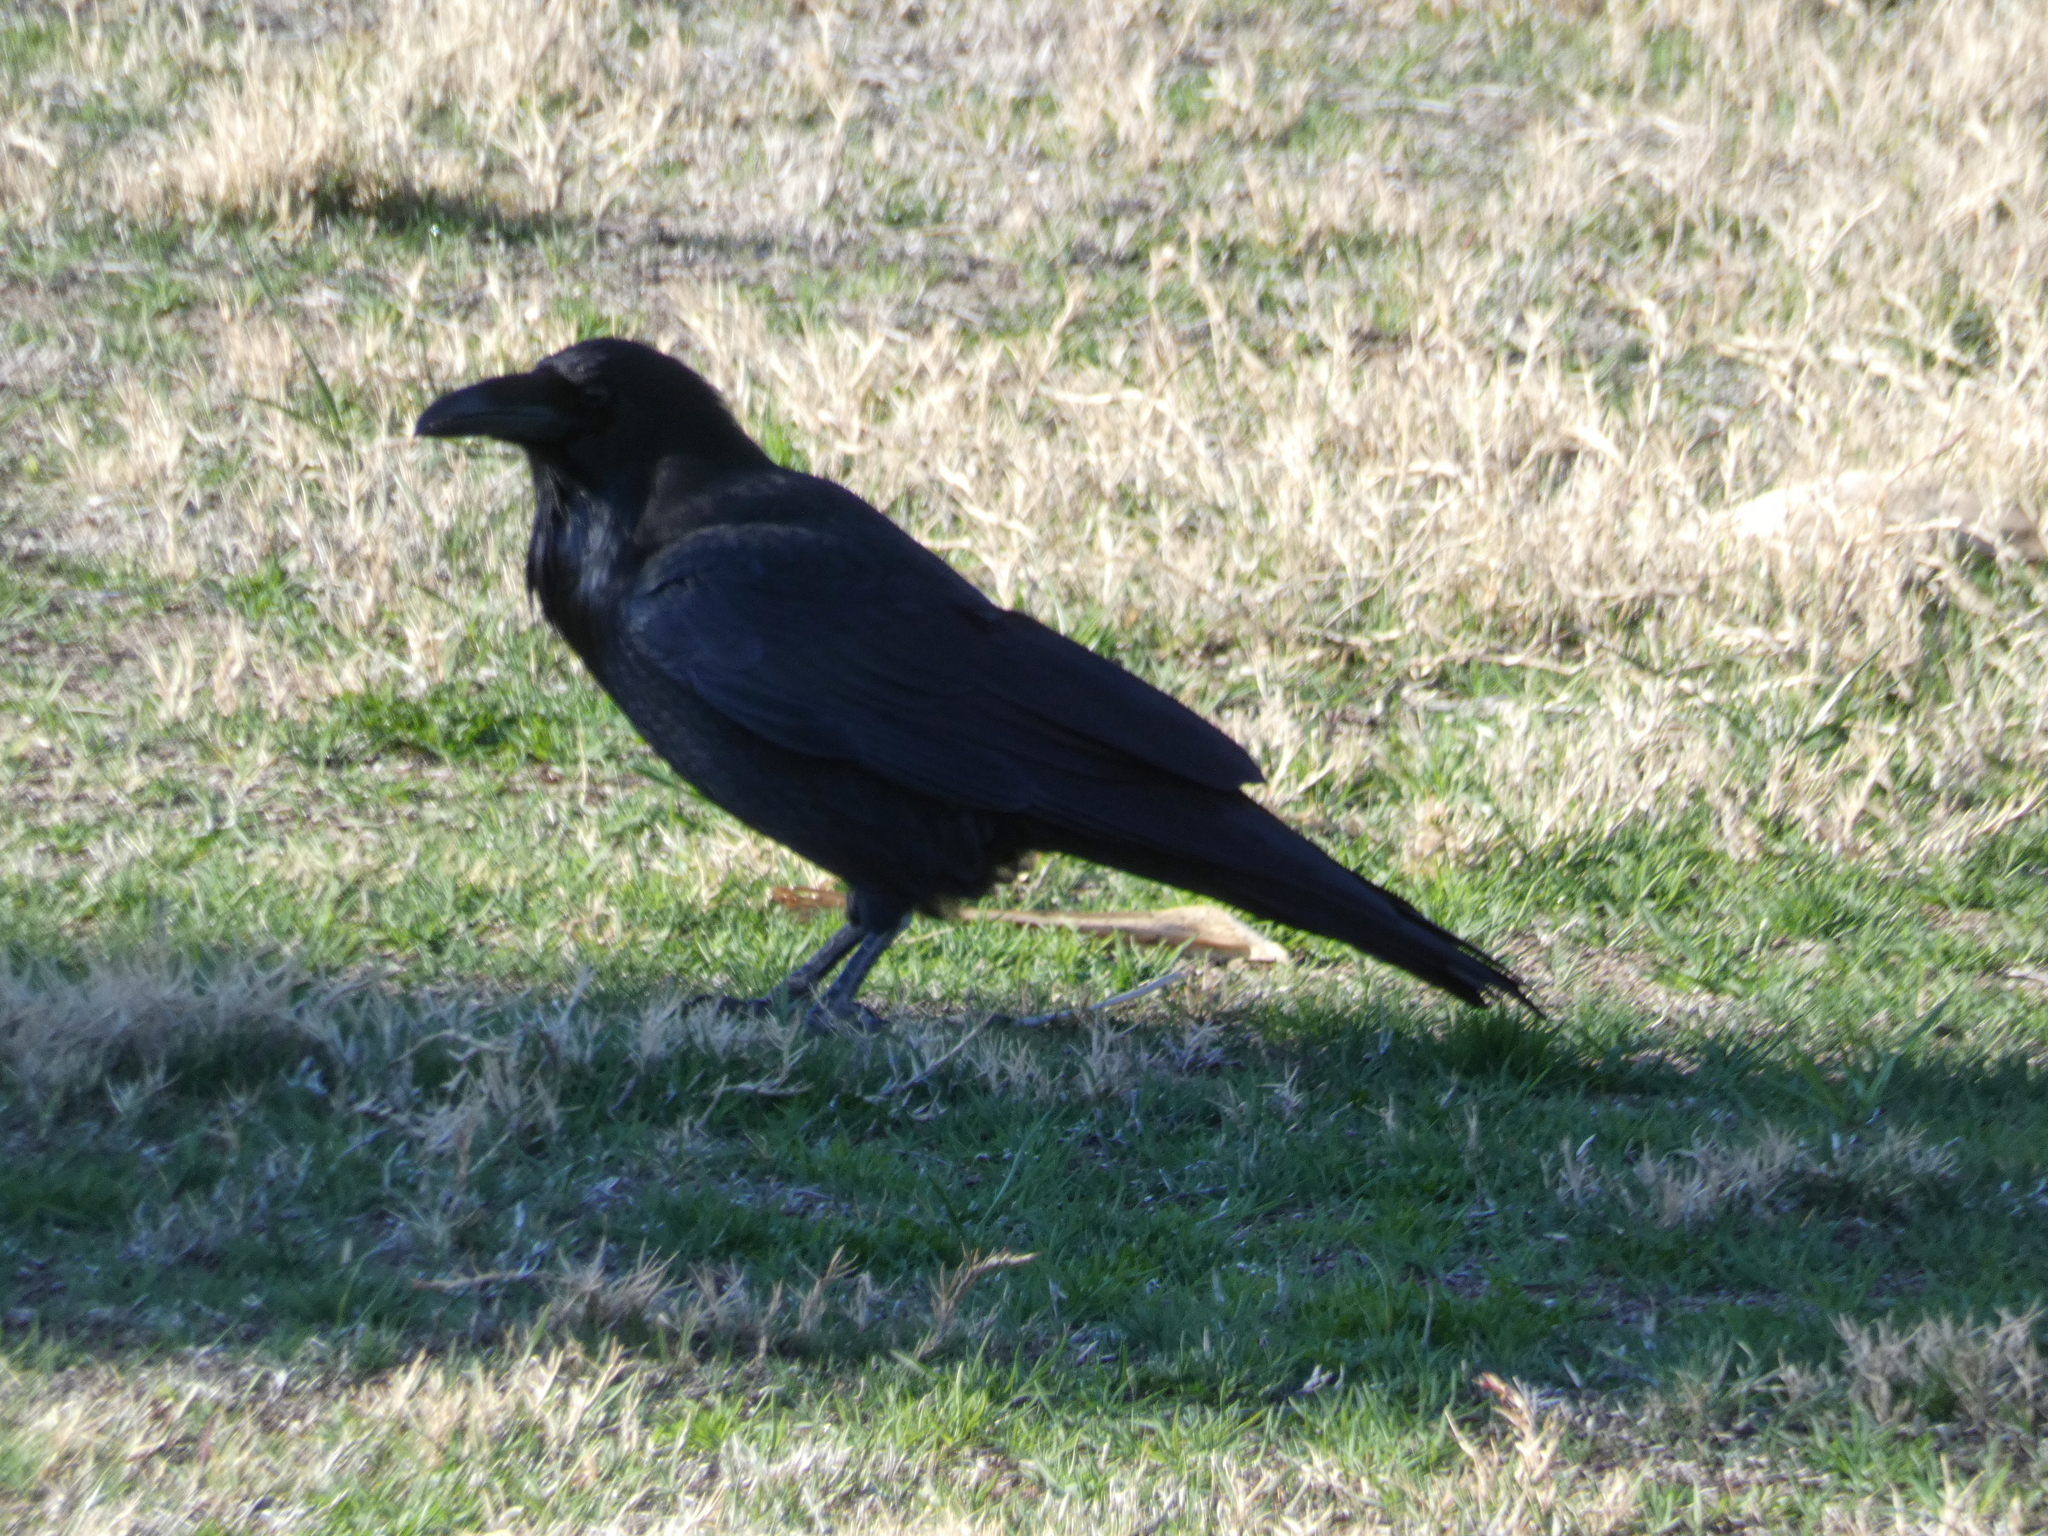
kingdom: Animalia
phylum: Chordata
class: Aves
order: Passeriformes
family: Corvidae
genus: Corvus
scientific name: Corvus corax
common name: Common raven
